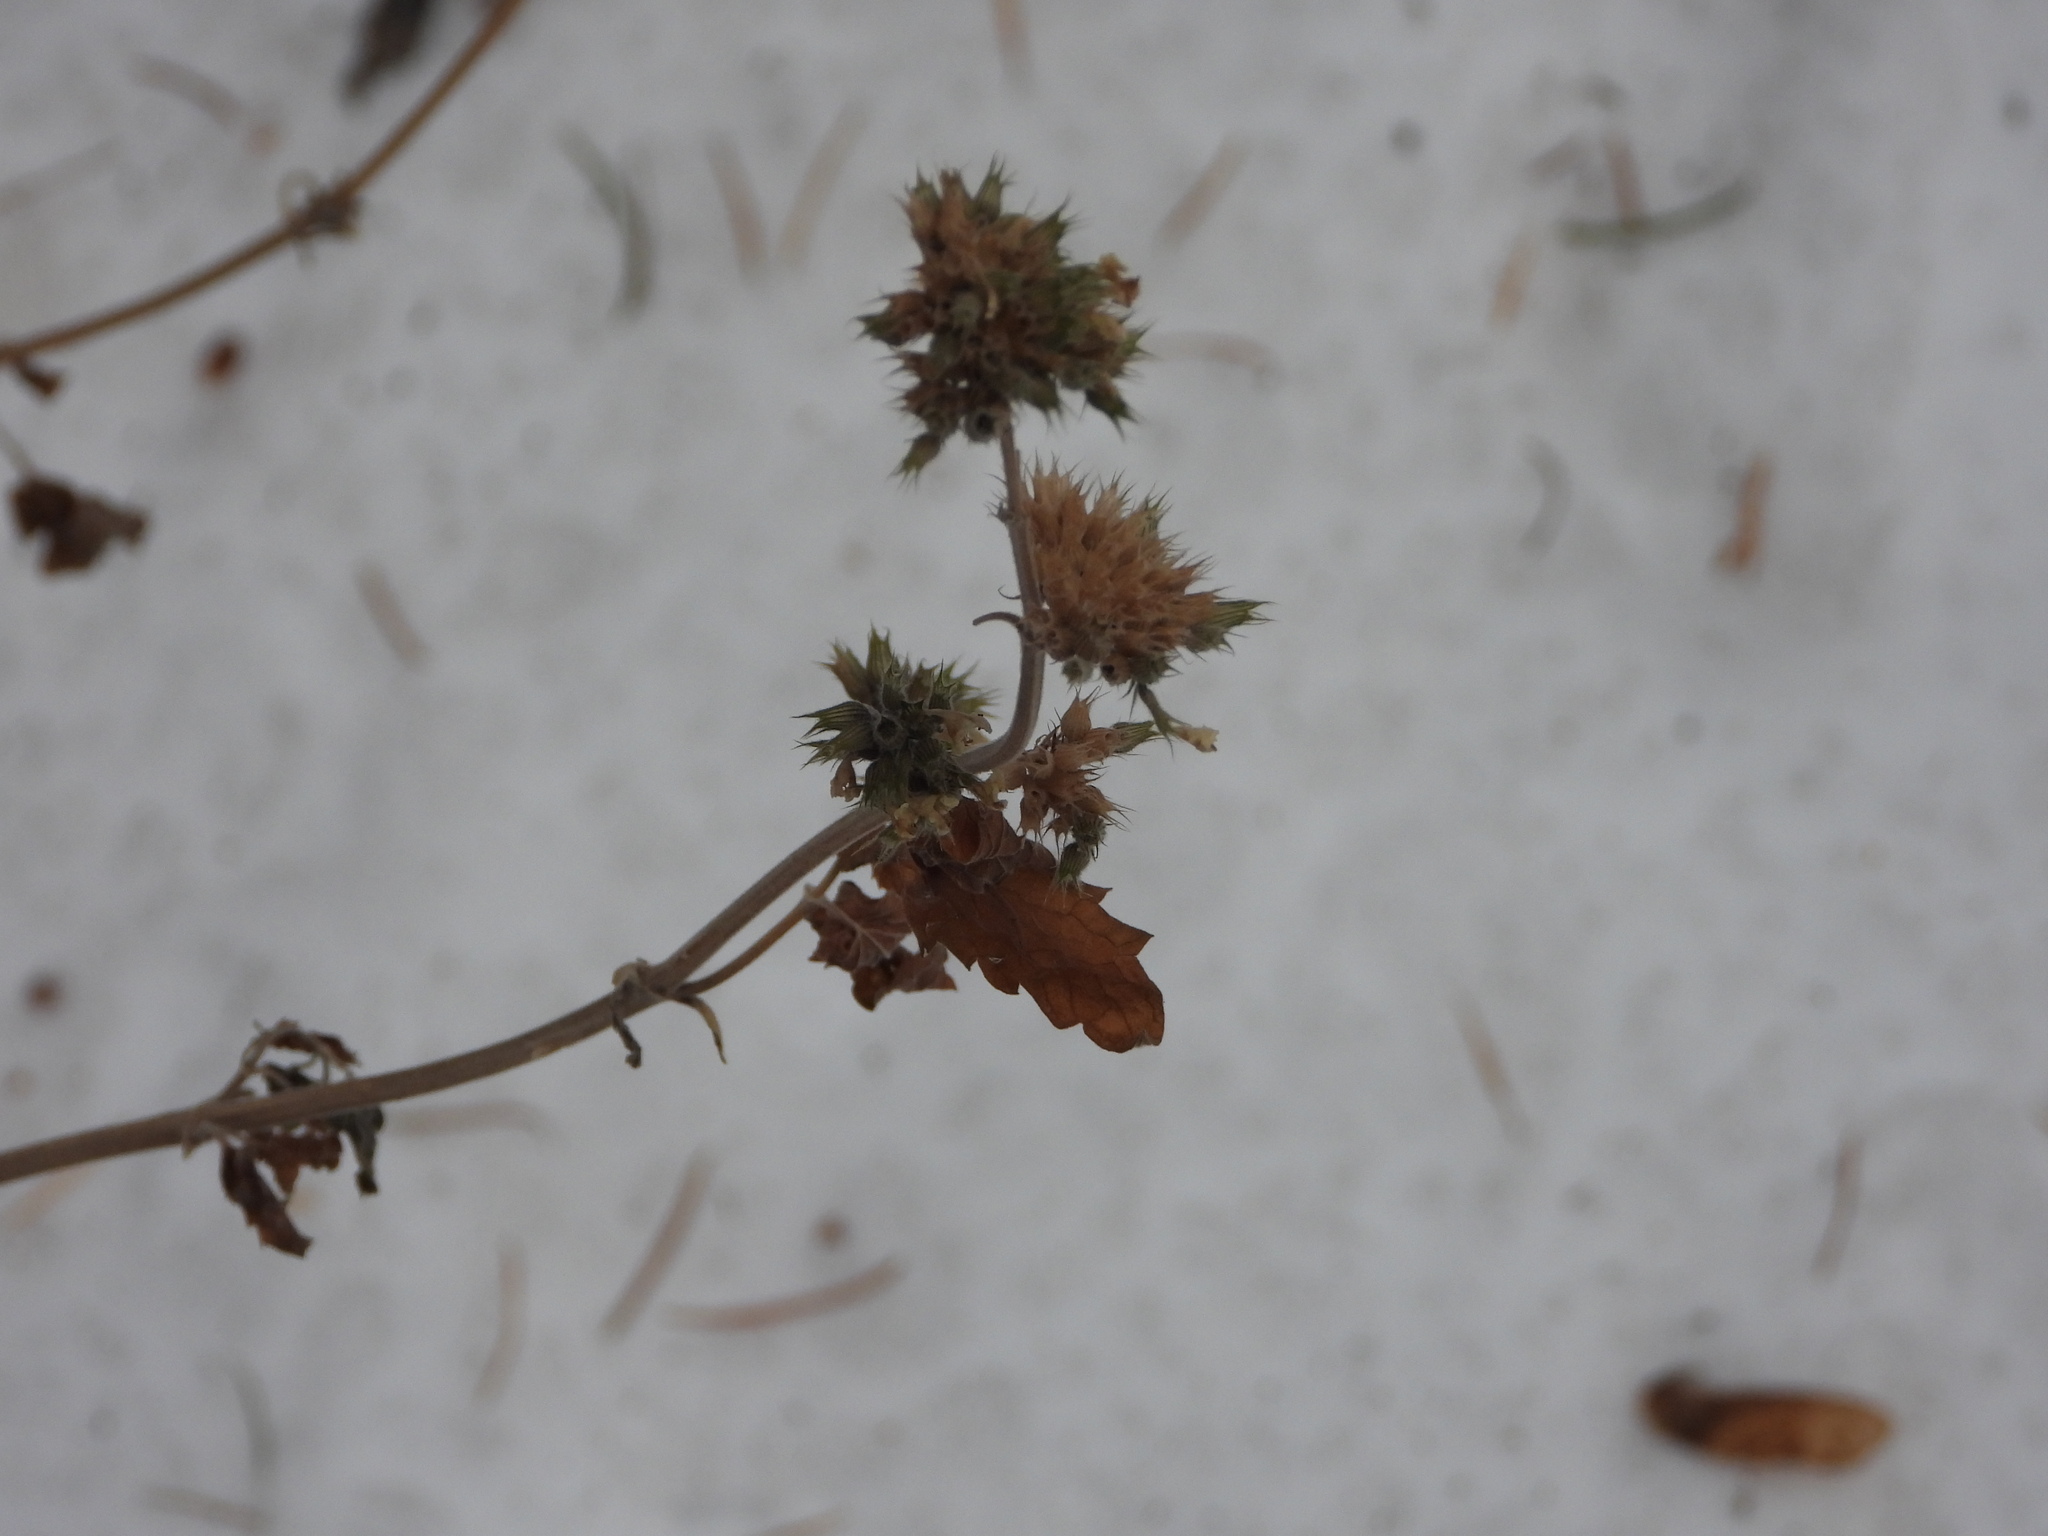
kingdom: Plantae
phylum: Tracheophyta
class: Magnoliopsida
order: Lamiales
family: Lamiaceae
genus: Nepeta
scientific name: Nepeta cataria
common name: Catnip
